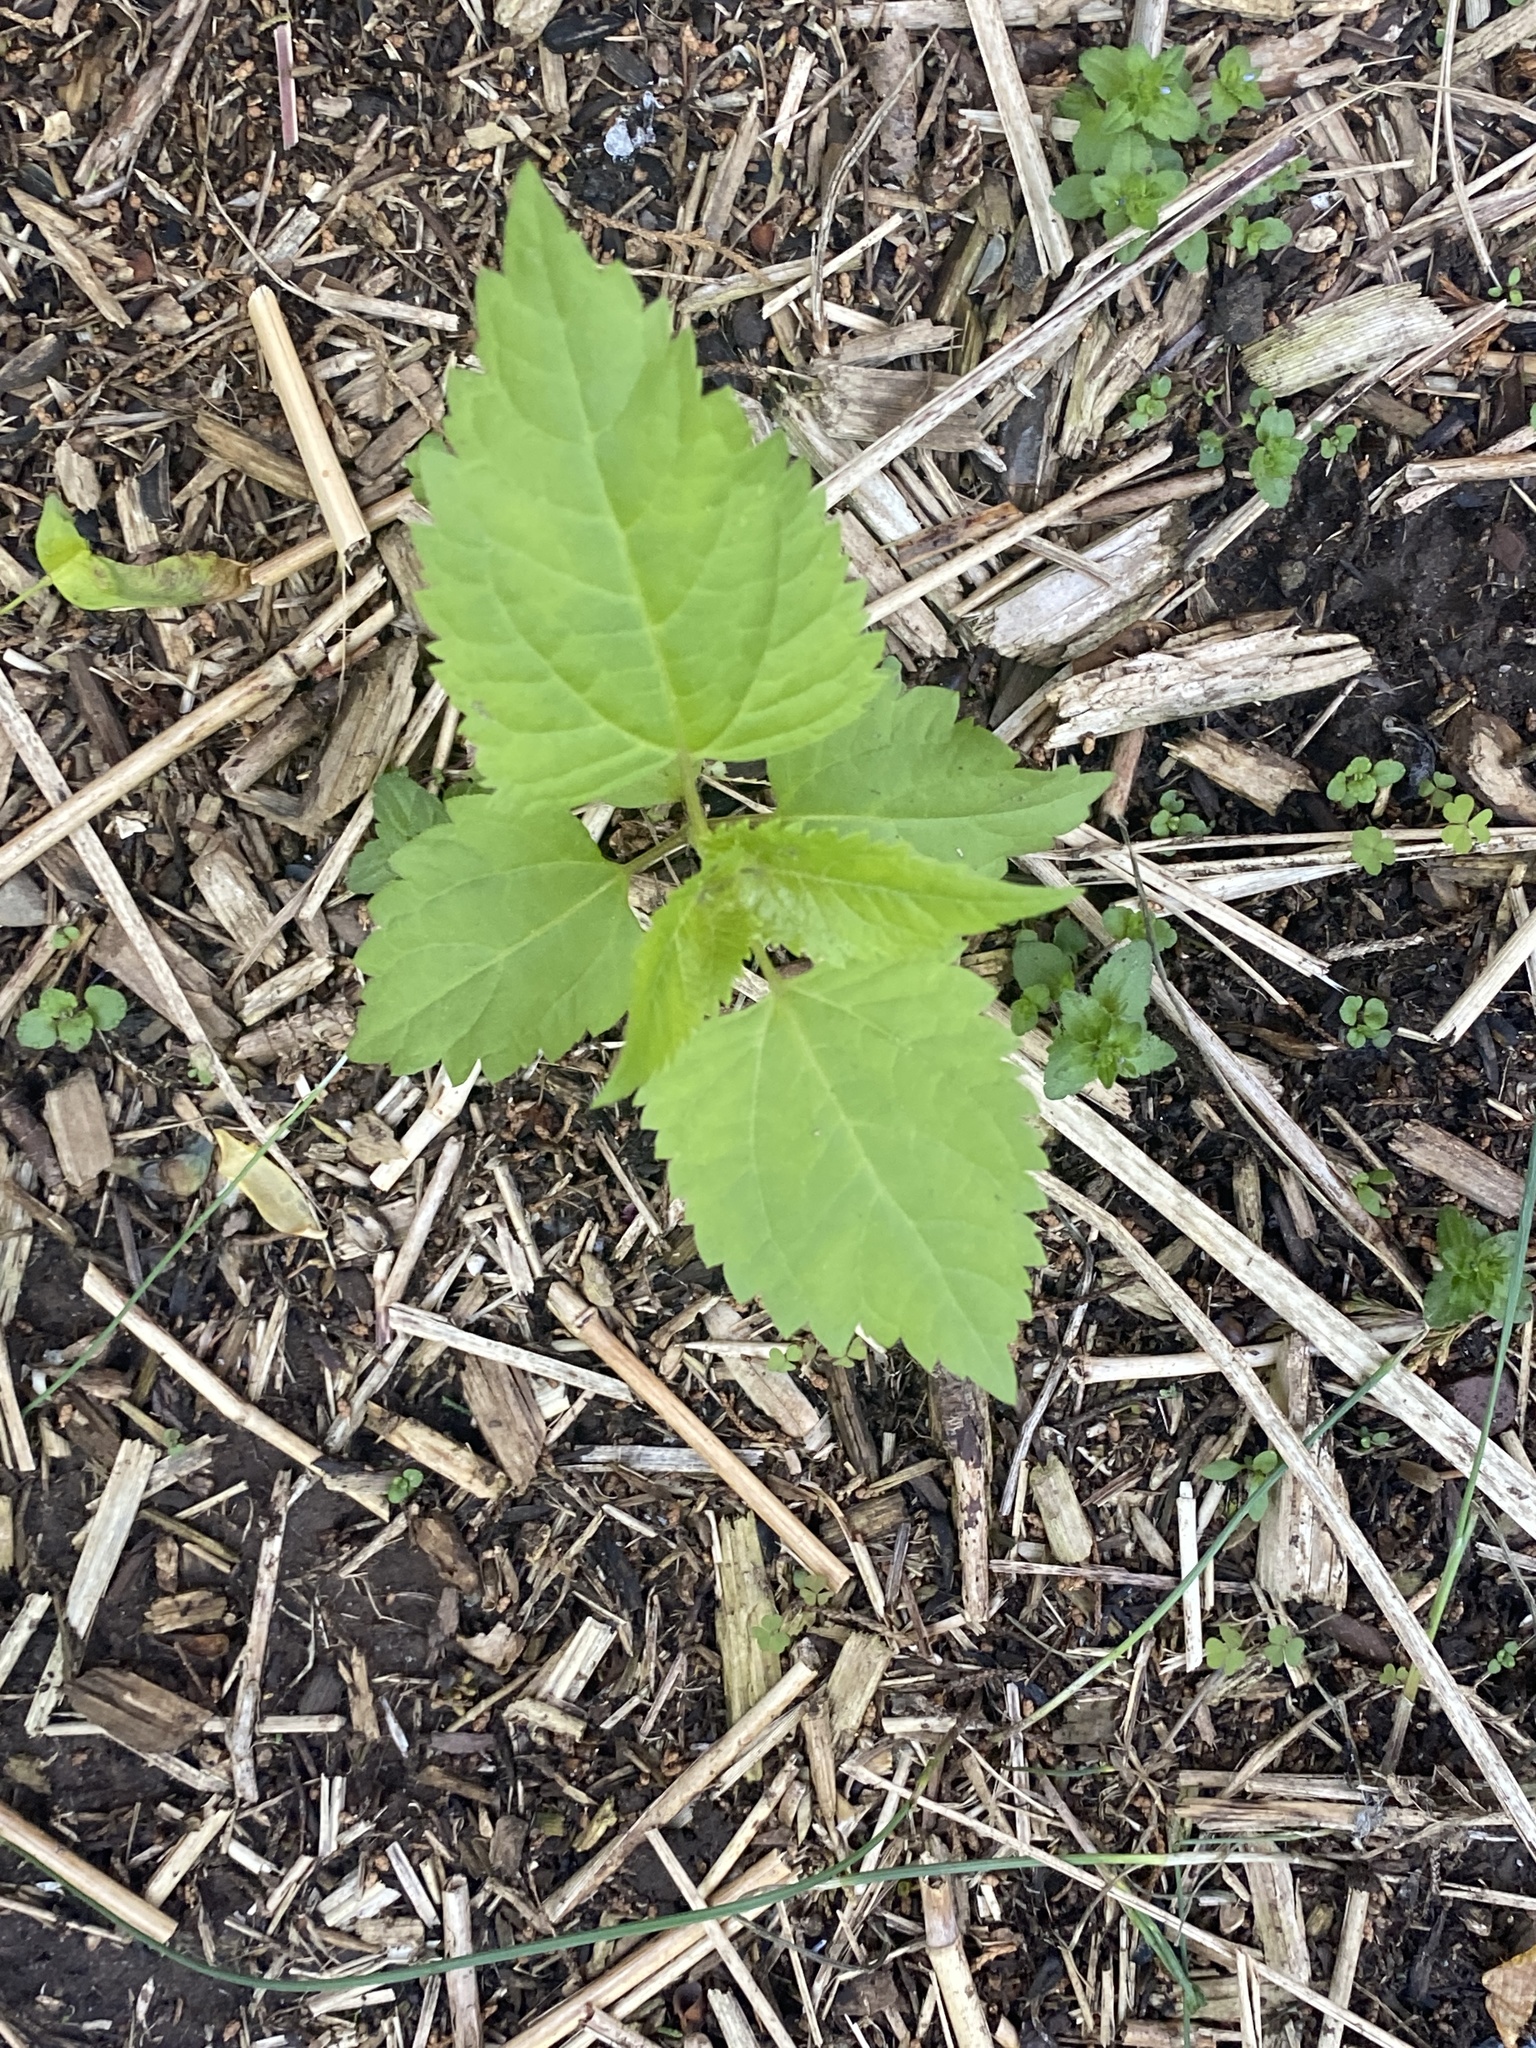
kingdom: Plantae
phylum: Tracheophyta
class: Magnoliopsida
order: Asterales
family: Asteraceae
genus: Ageratina
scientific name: Ageratina altissima
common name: White snakeroot
